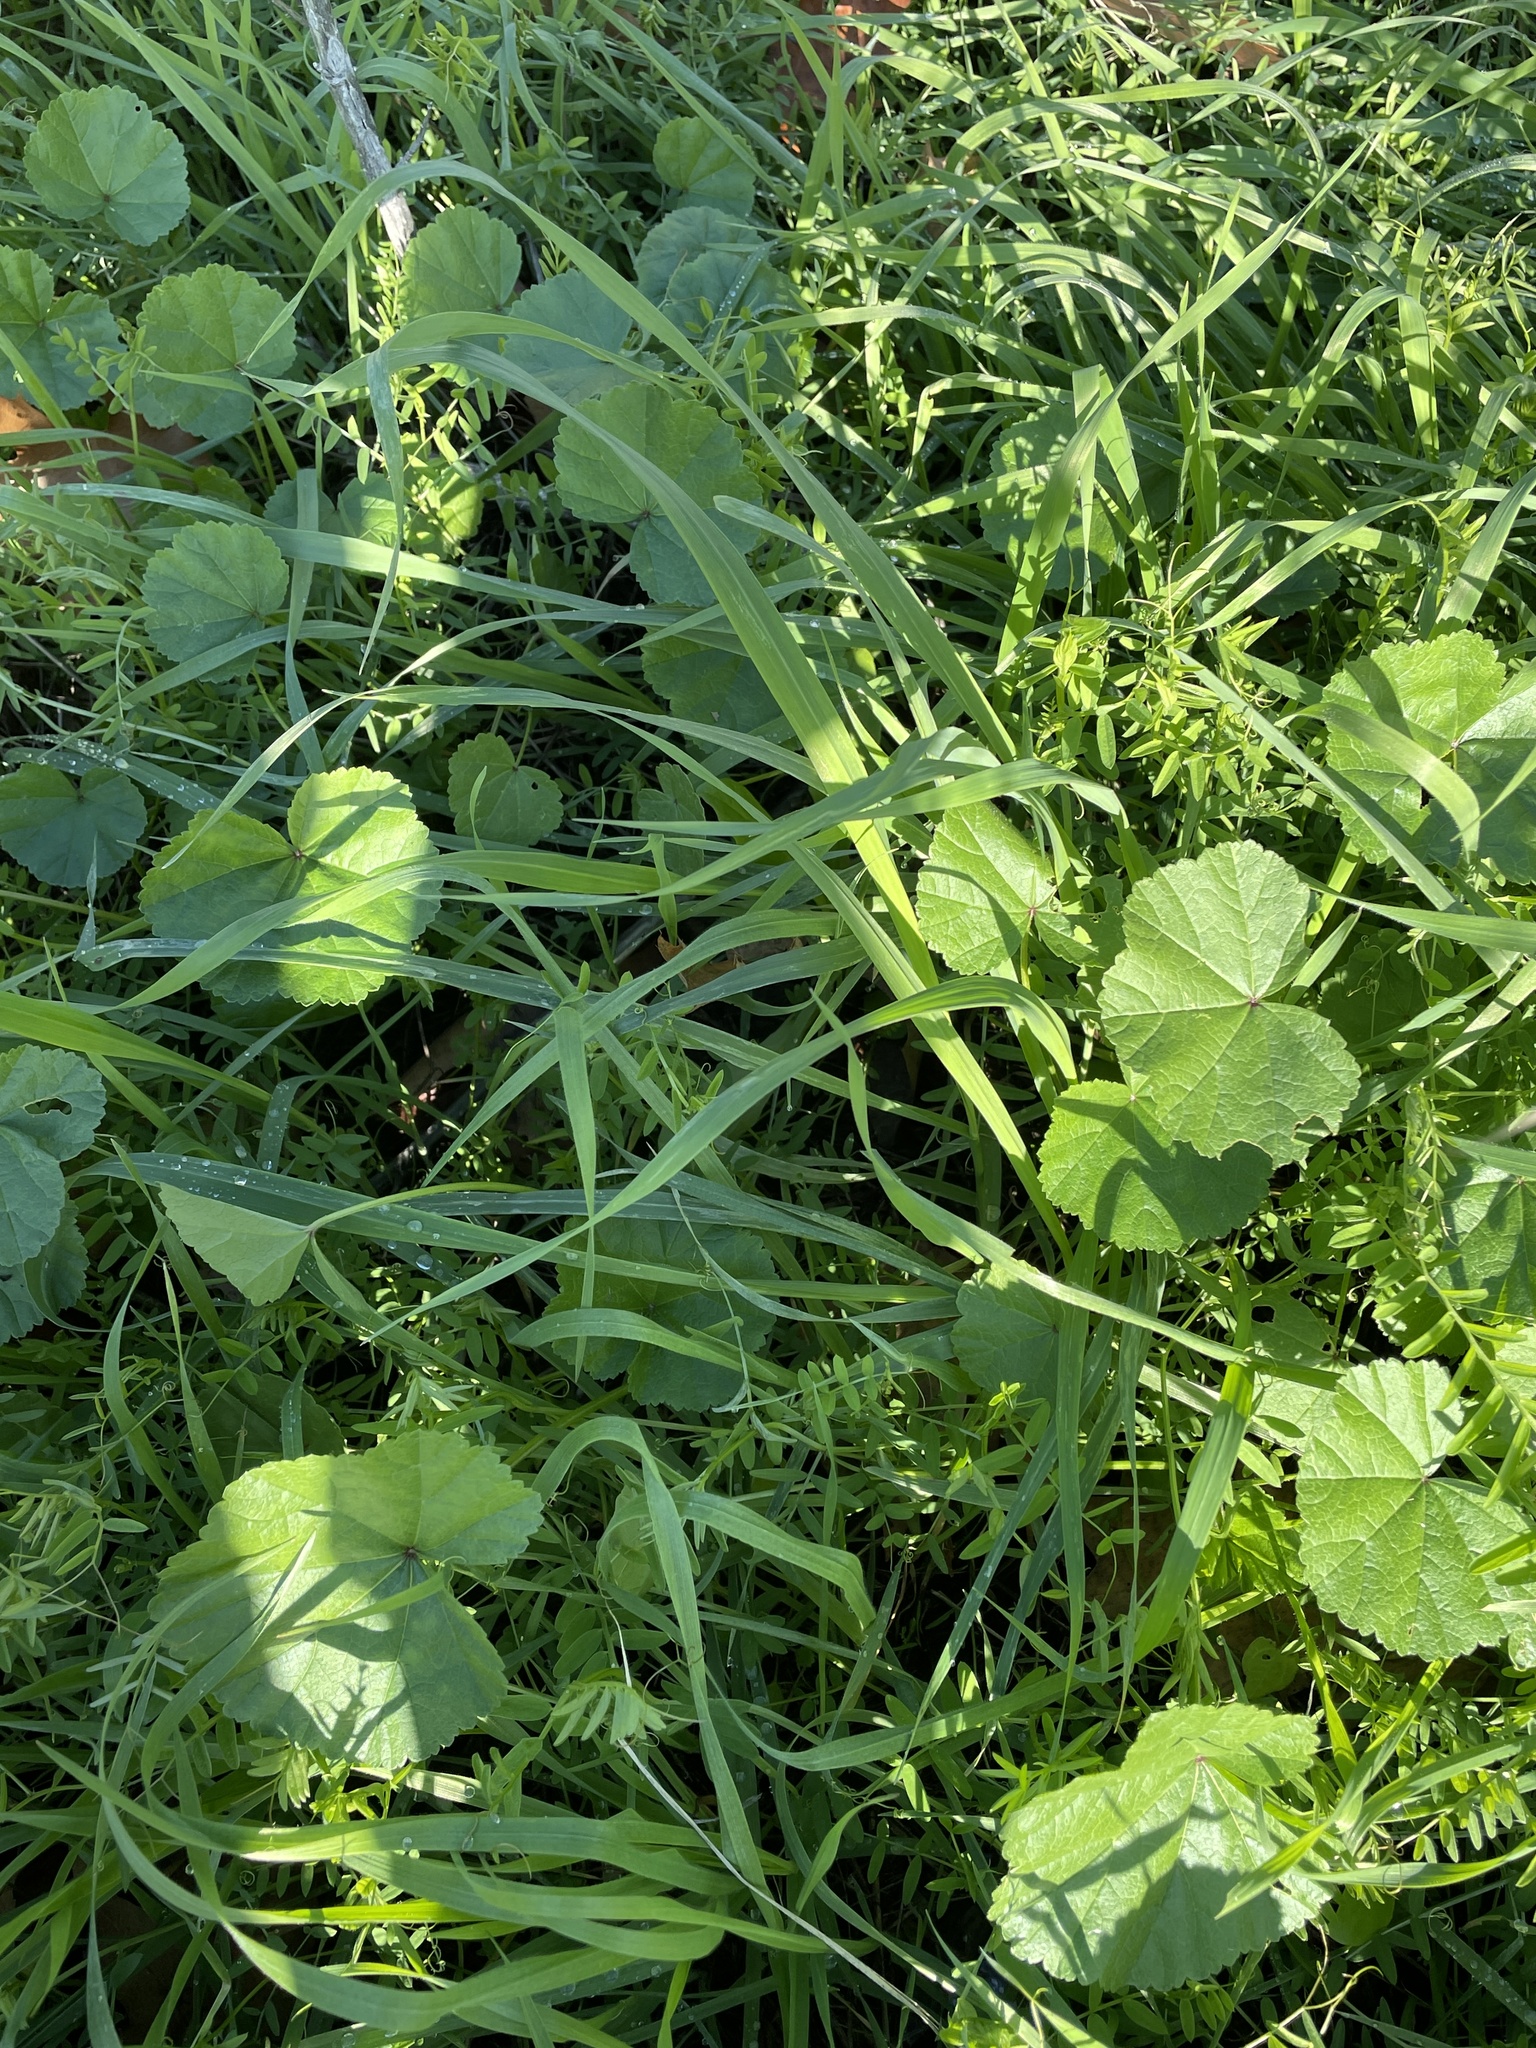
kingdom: Plantae
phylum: Tracheophyta
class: Magnoliopsida
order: Malvales
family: Malvaceae
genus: Malva
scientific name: Malva
